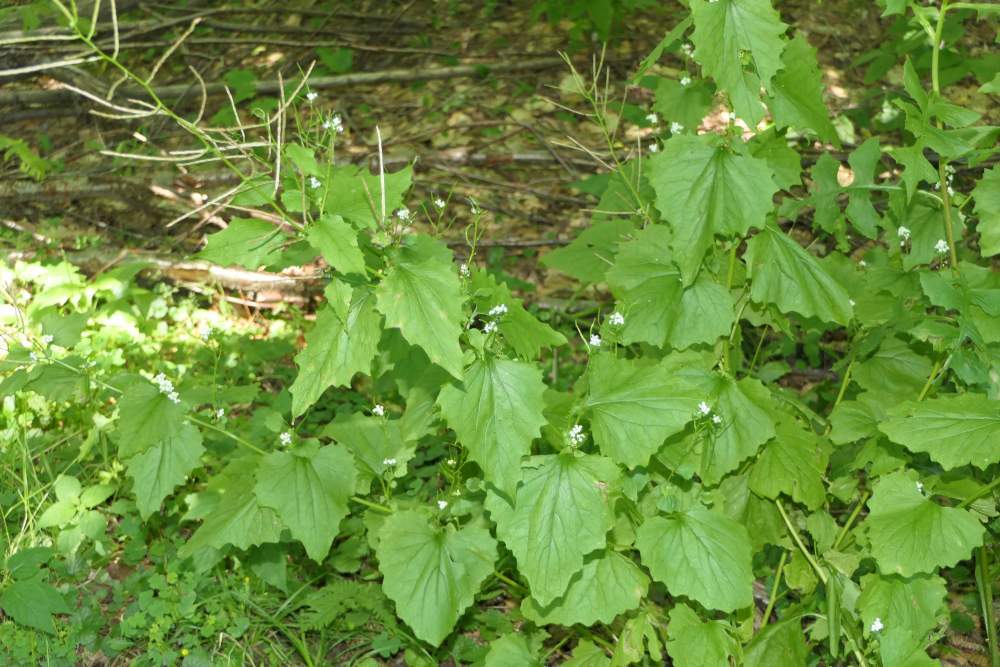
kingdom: Plantae
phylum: Tracheophyta
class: Magnoliopsida
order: Brassicales
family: Brassicaceae
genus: Alliaria
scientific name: Alliaria petiolata
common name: Garlic mustard
